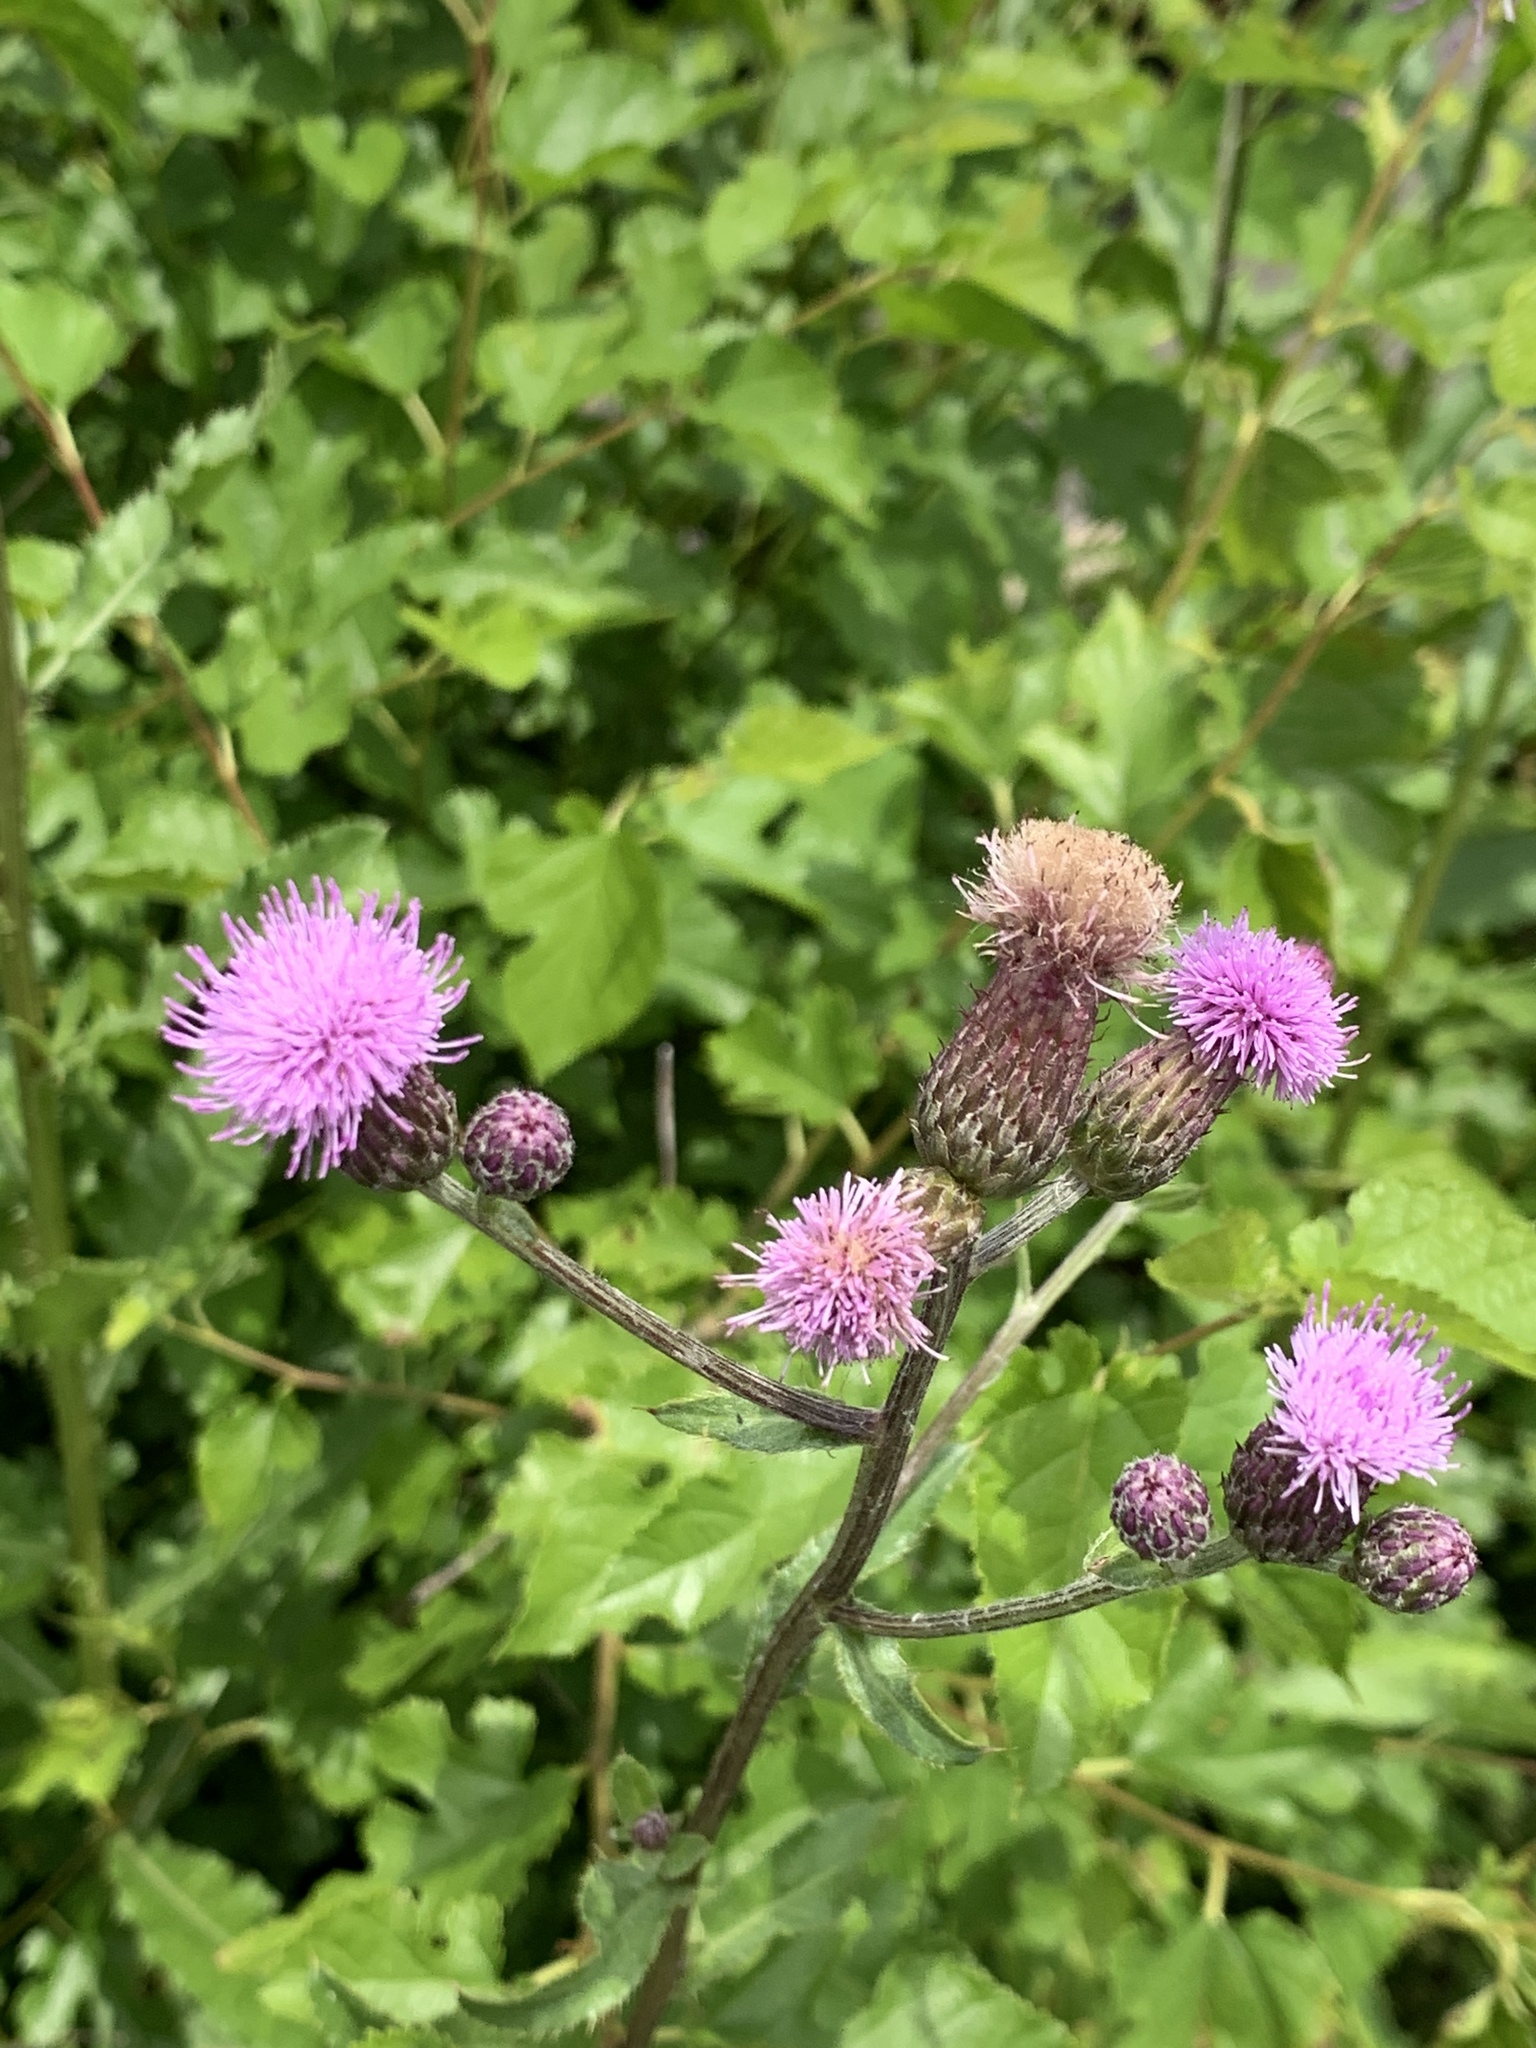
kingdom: Plantae
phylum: Tracheophyta
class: Magnoliopsida
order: Asterales
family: Asteraceae
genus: Cirsium
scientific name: Cirsium arvense
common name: Creeping thistle
